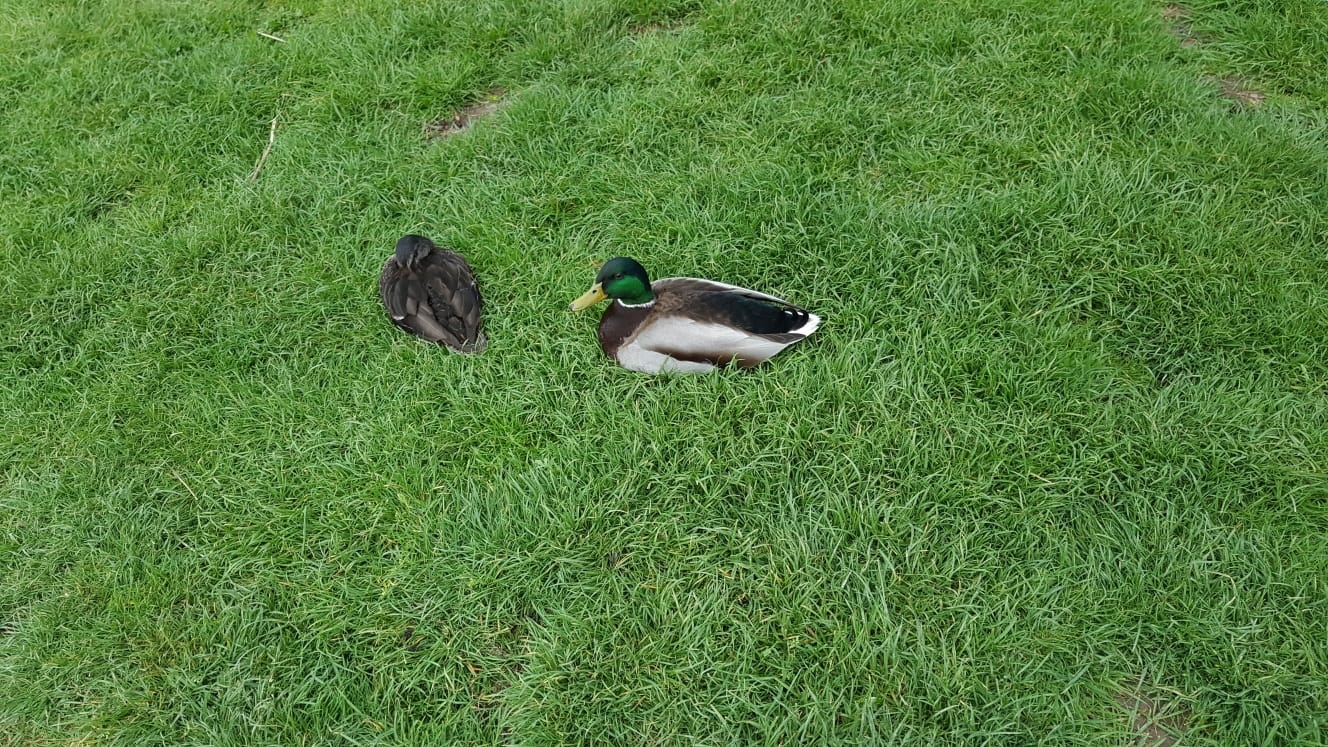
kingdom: Animalia
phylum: Chordata
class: Aves
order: Anseriformes
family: Anatidae
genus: Anas
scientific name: Anas platyrhynchos
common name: Mallard
